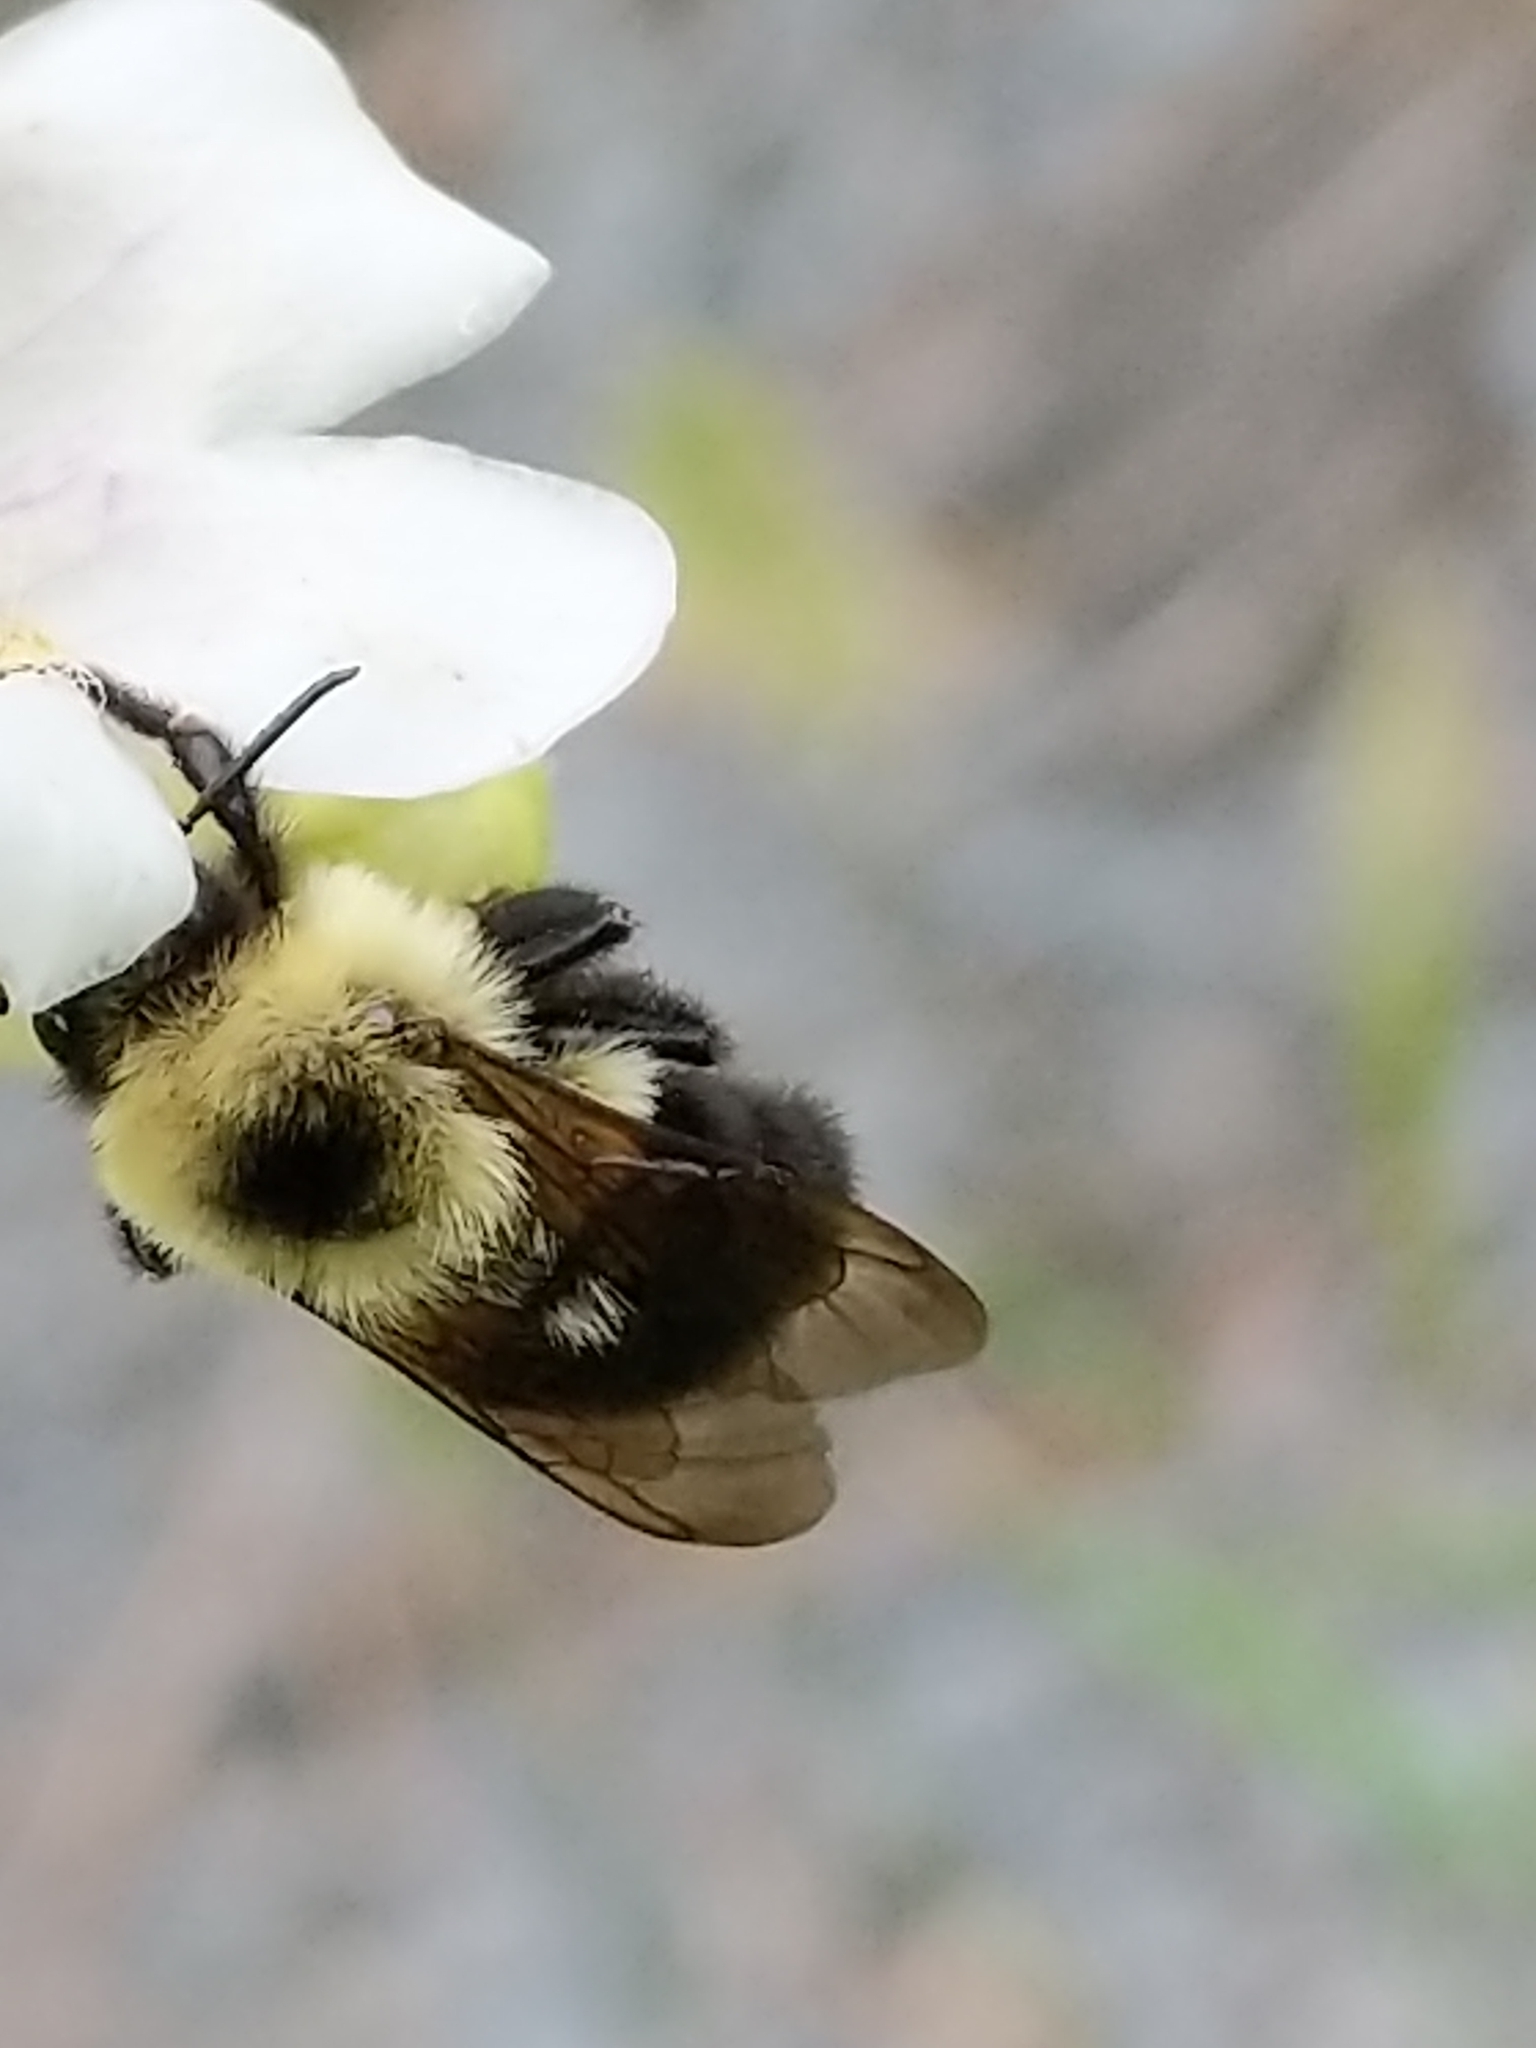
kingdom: Animalia
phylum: Arthropoda
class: Insecta
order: Hymenoptera
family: Apidae
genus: Bombus
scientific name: Bombus bimaculatus
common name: Two-spotted bumble bee
